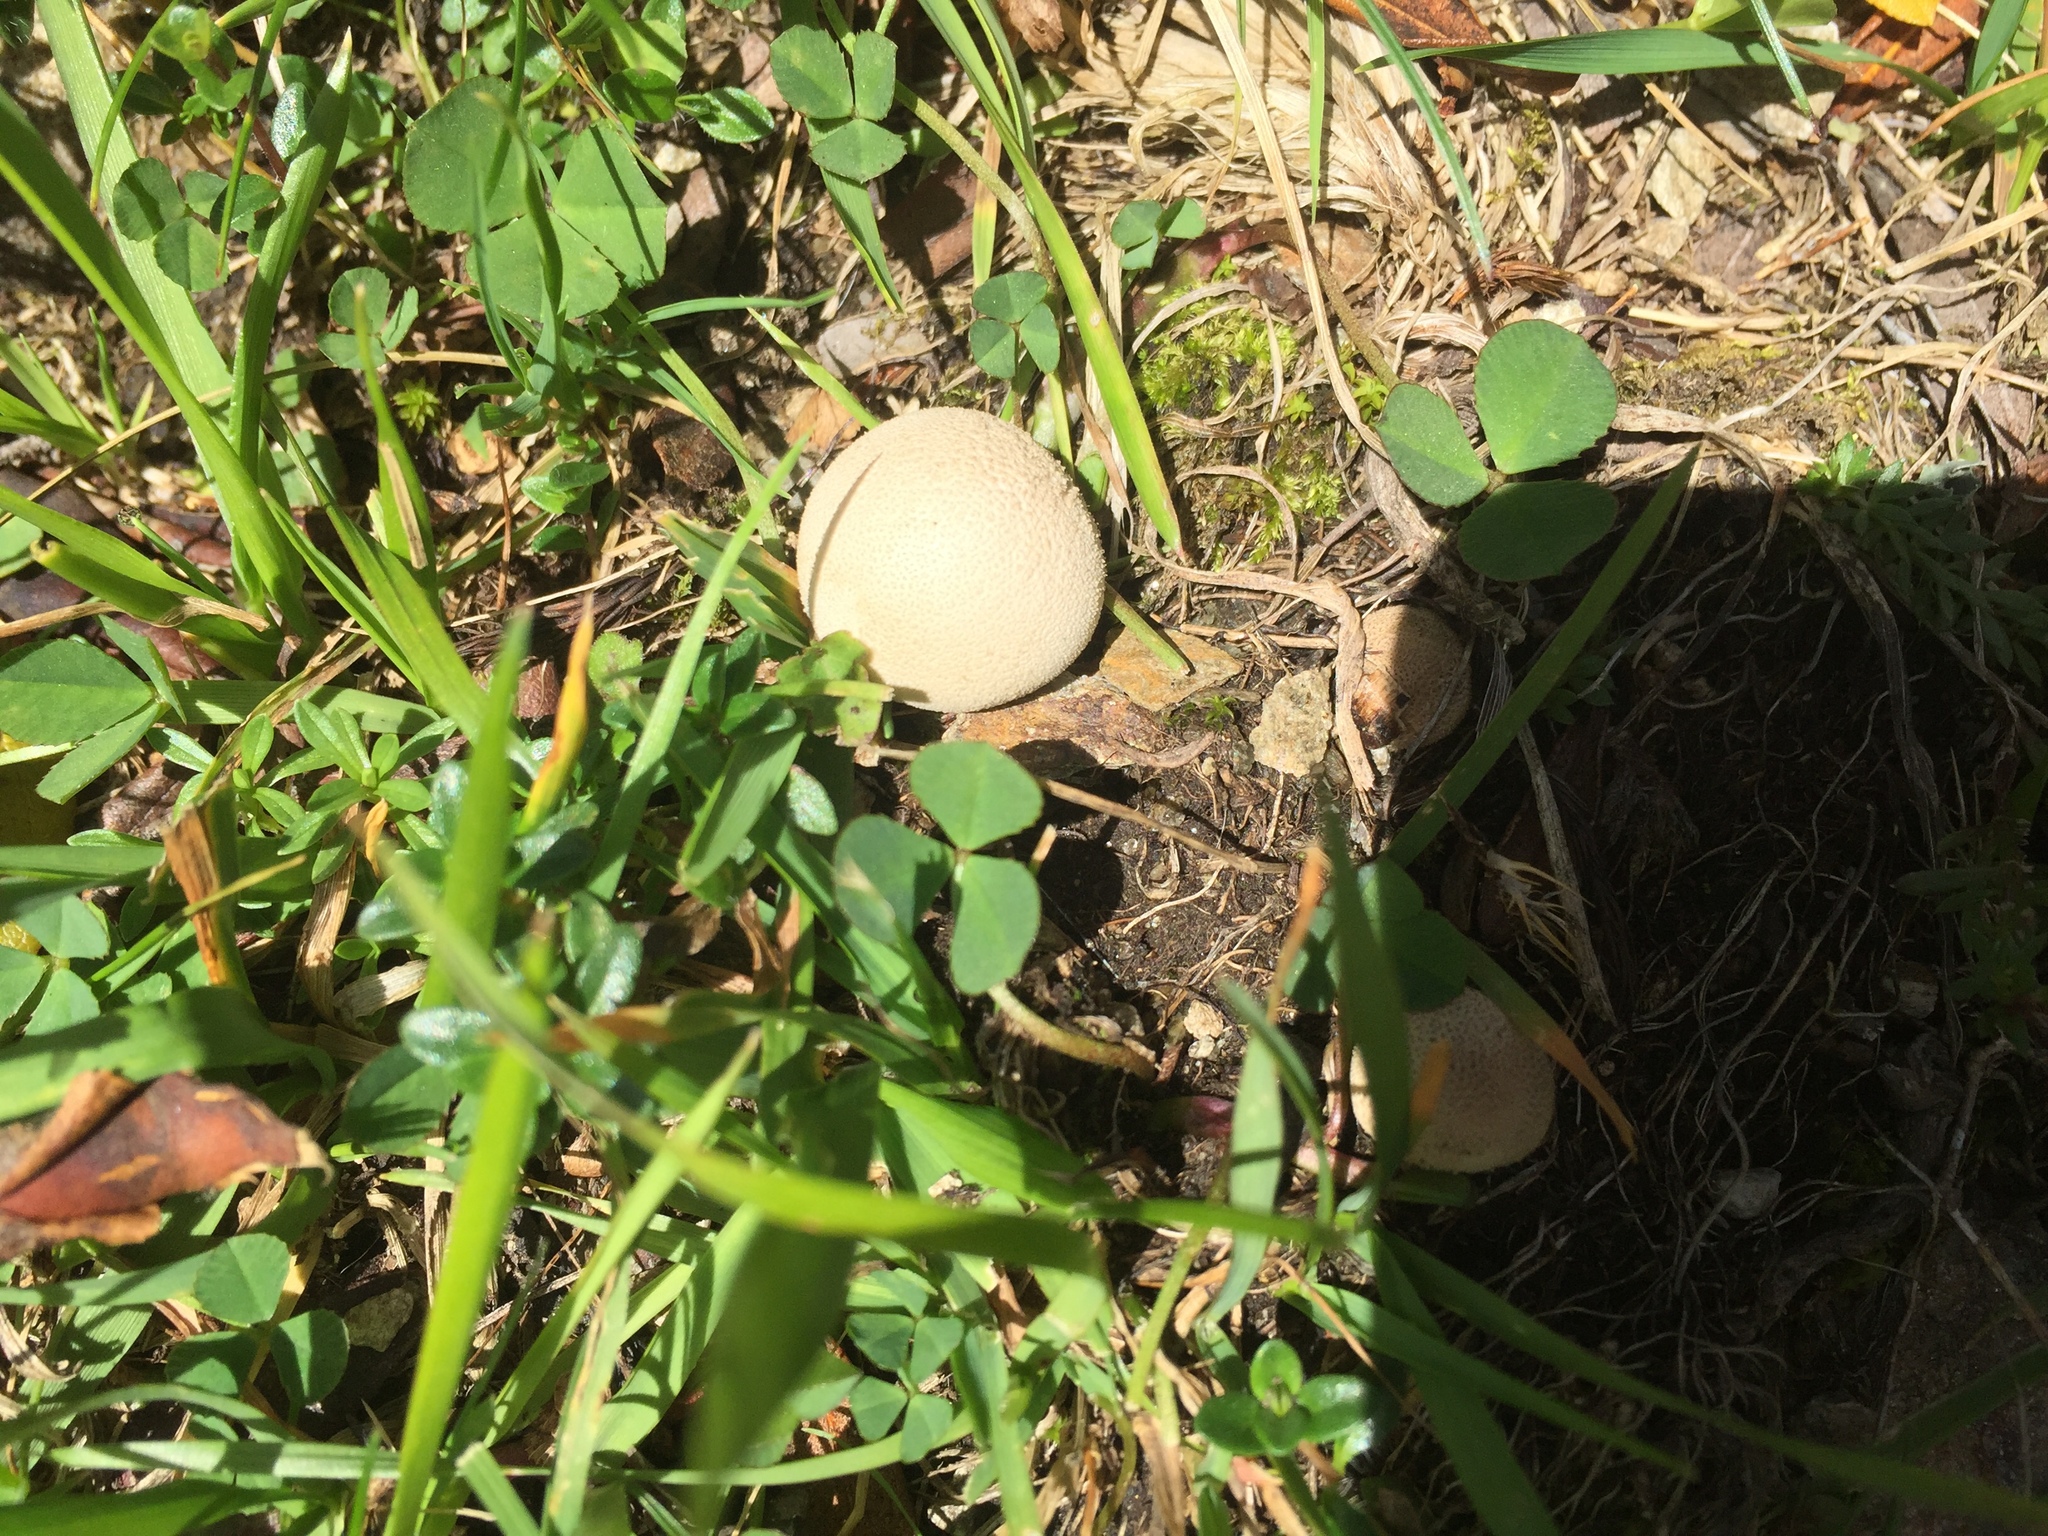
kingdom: Fungi
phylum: Basidiomycota
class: Agaricomycetes
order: Agaricales
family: Lycoperdaceae
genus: Lycoperdon
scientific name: Lycoperdon pratense
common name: Meadow puffball
